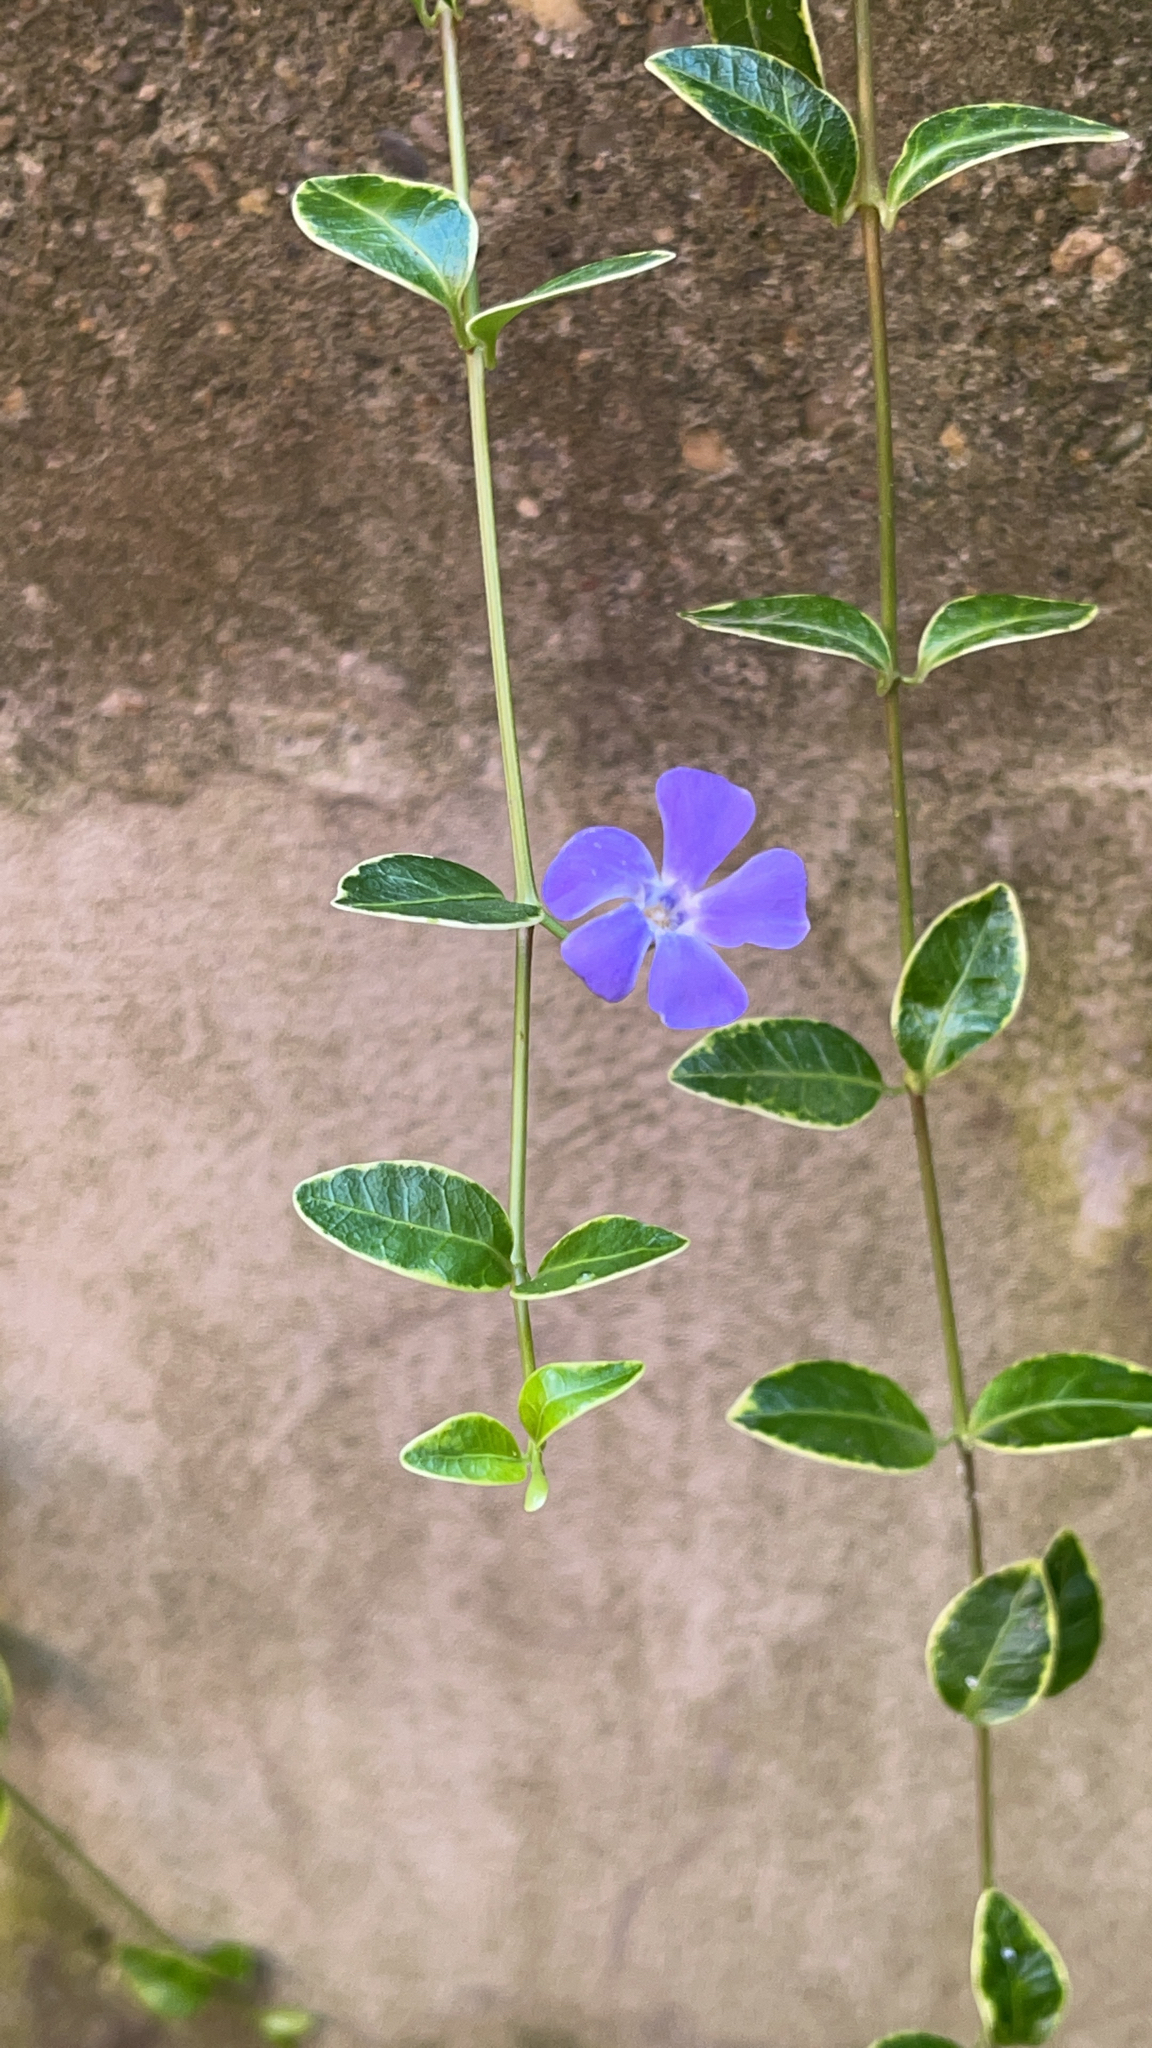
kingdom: Plantae
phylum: Tracheophyta
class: Magnoliopsida
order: Gentianales
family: Apocynaceae
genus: Vinca
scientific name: Vinca minor
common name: Lesser periwinkle
